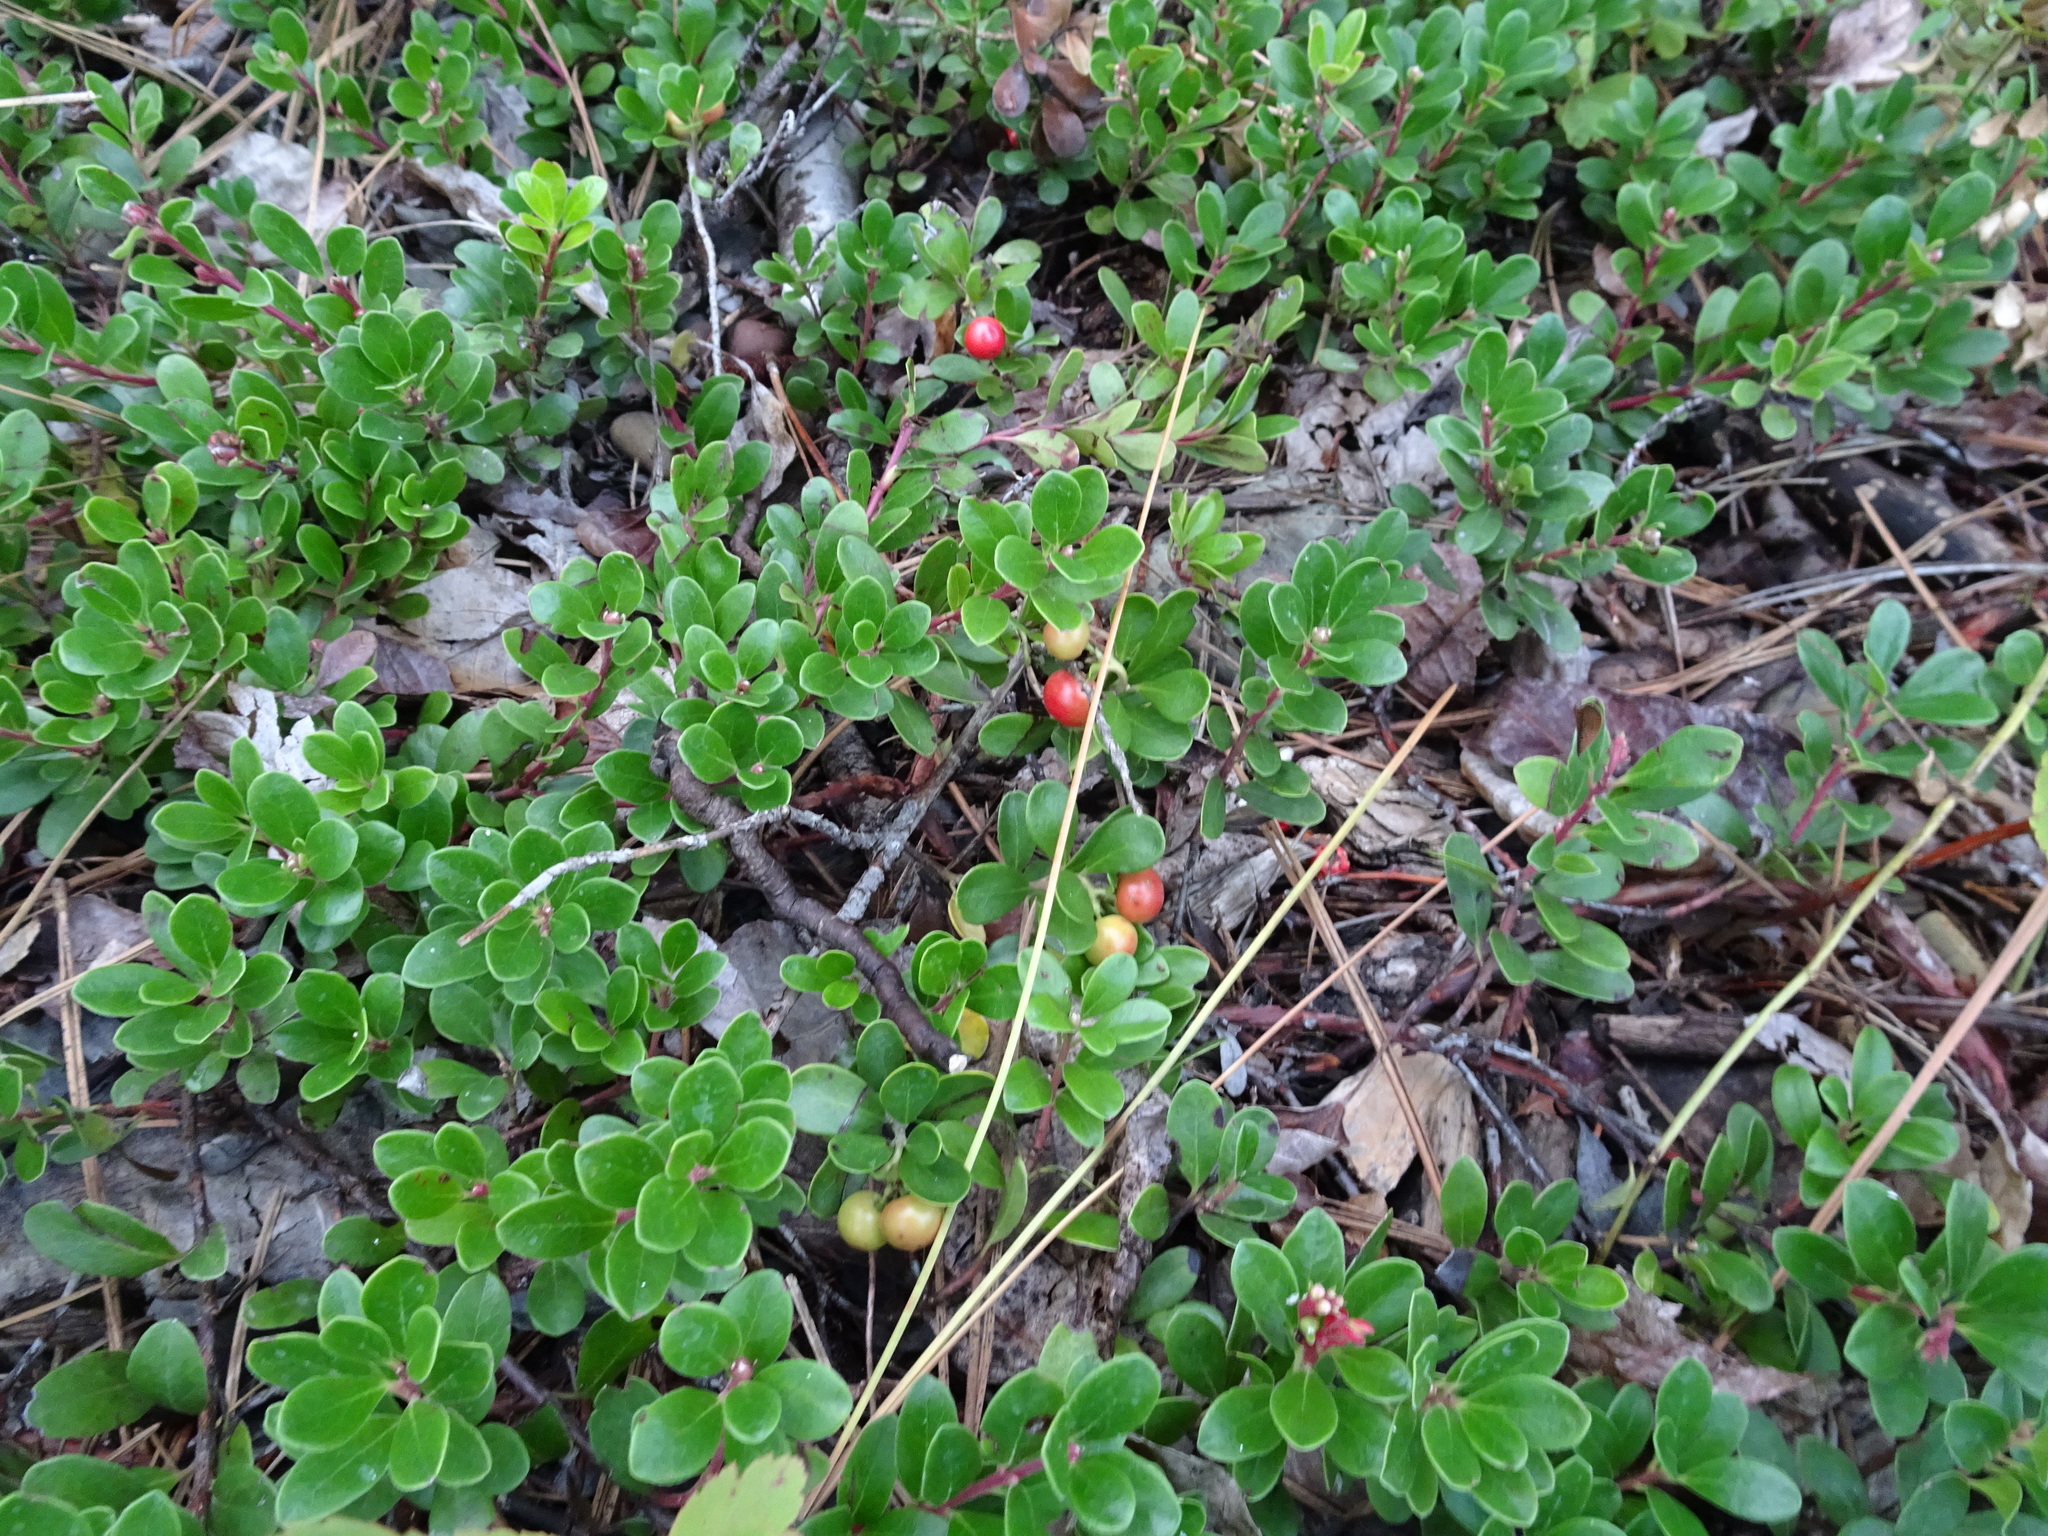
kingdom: Plantae
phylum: Tracheophyta
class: Magnoliopsida
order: Ericales
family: Ericaceae
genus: Arctostaphylos
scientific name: Arctostaphylos uva-ursi
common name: Bearberry
